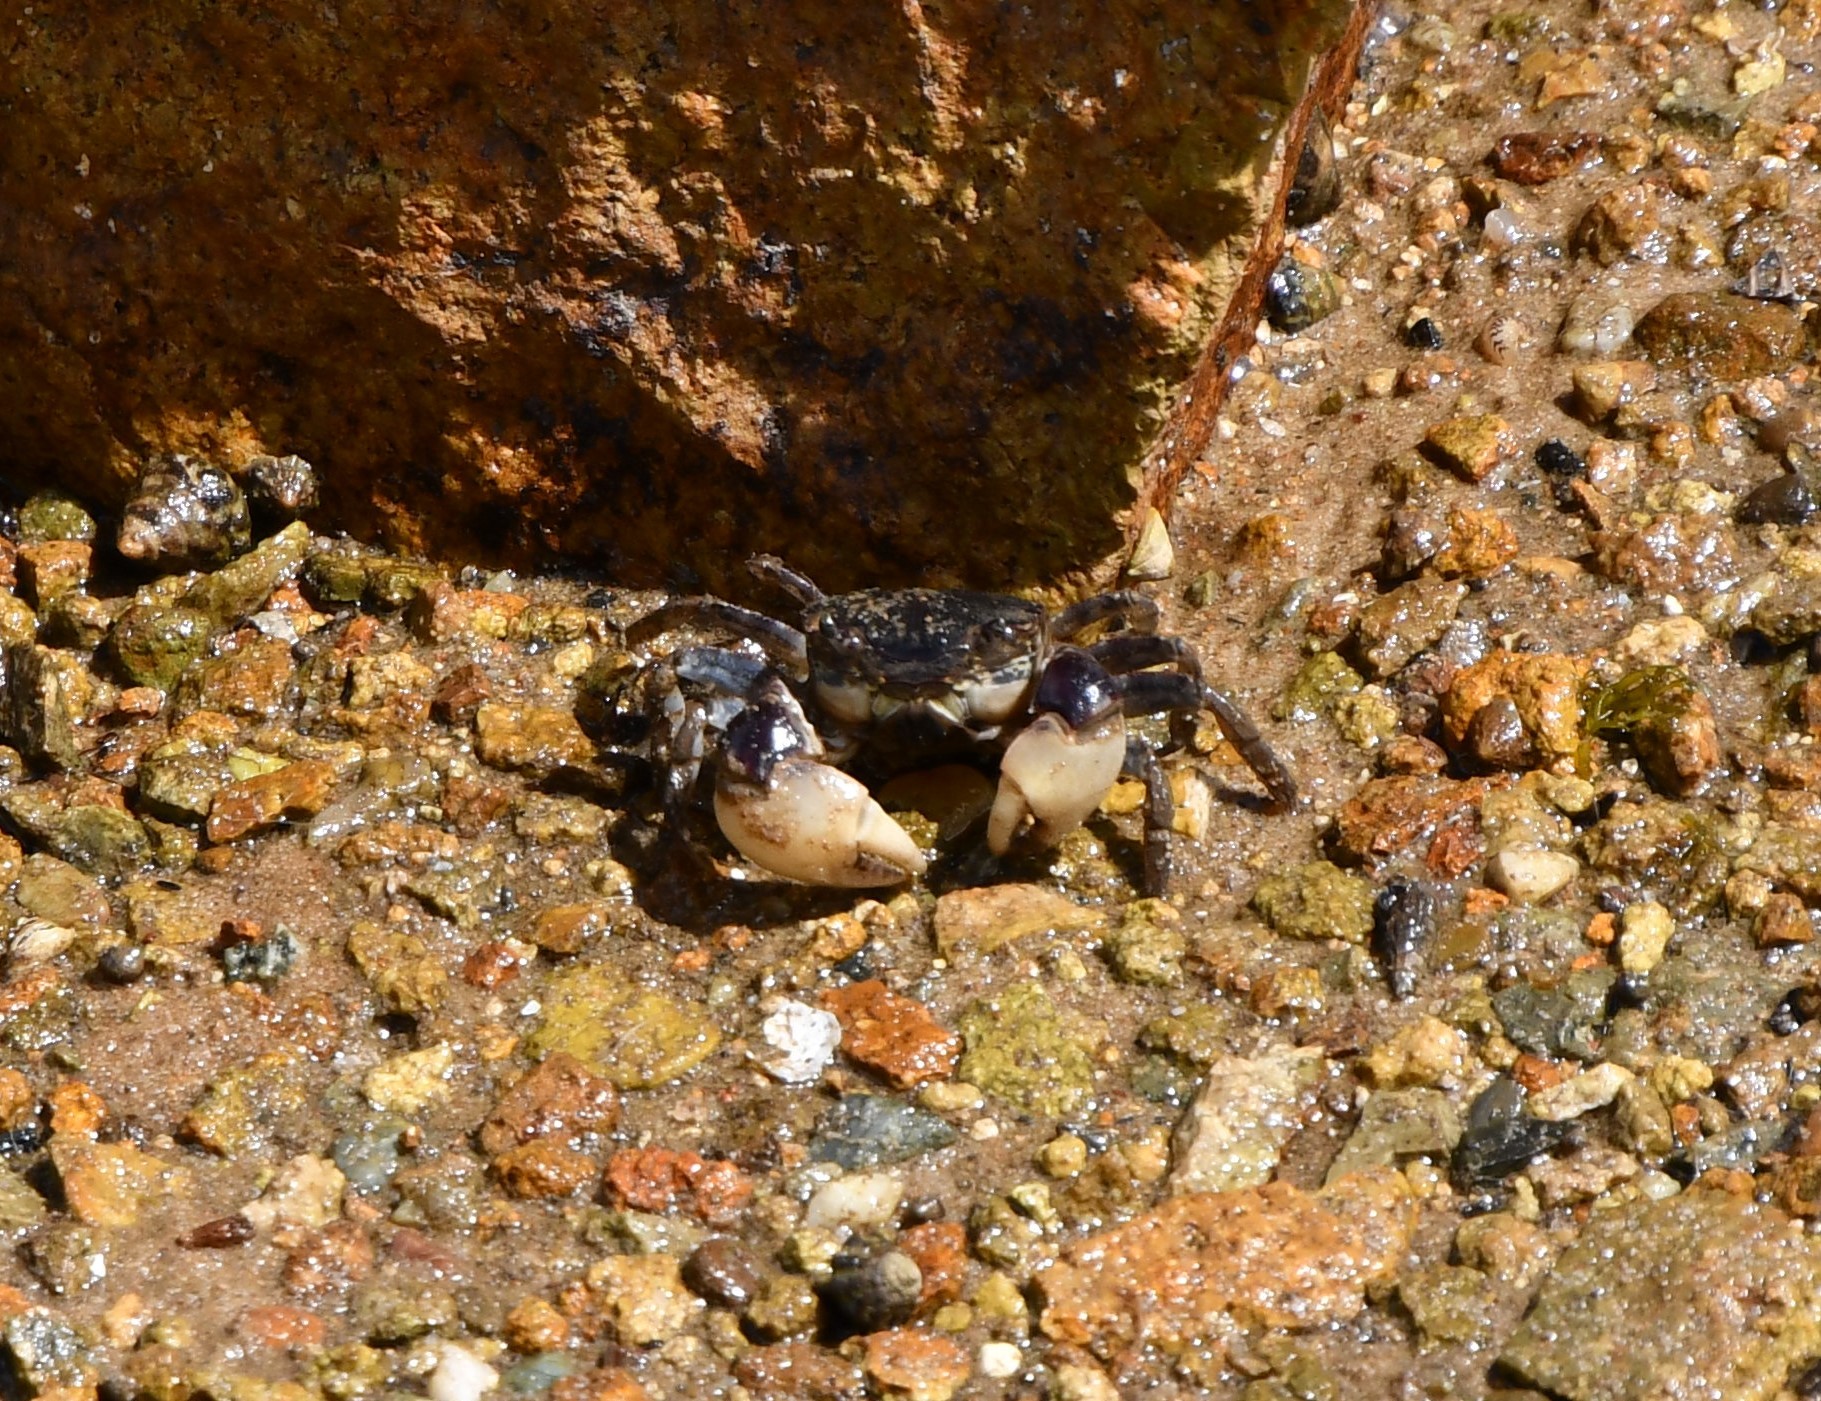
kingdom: Animalia
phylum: Arthropoda
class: Malacostraca
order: Decapoda
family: Varunidae
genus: Pseudohelice
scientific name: Pseudohelice subquadrata
